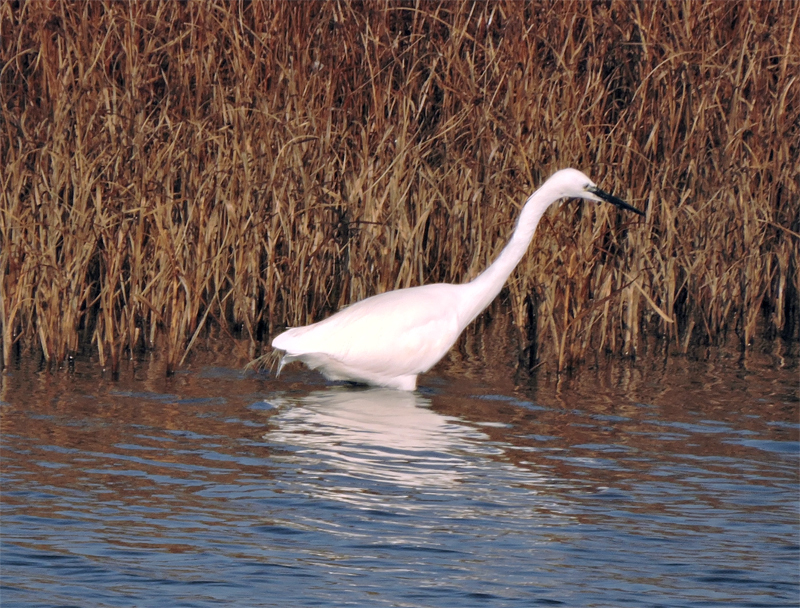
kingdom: Animalia
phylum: Chordata
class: Aves
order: Pelecaniformes
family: Ardeidae
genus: Egretta
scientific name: Egretta garzetta
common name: Little egret
